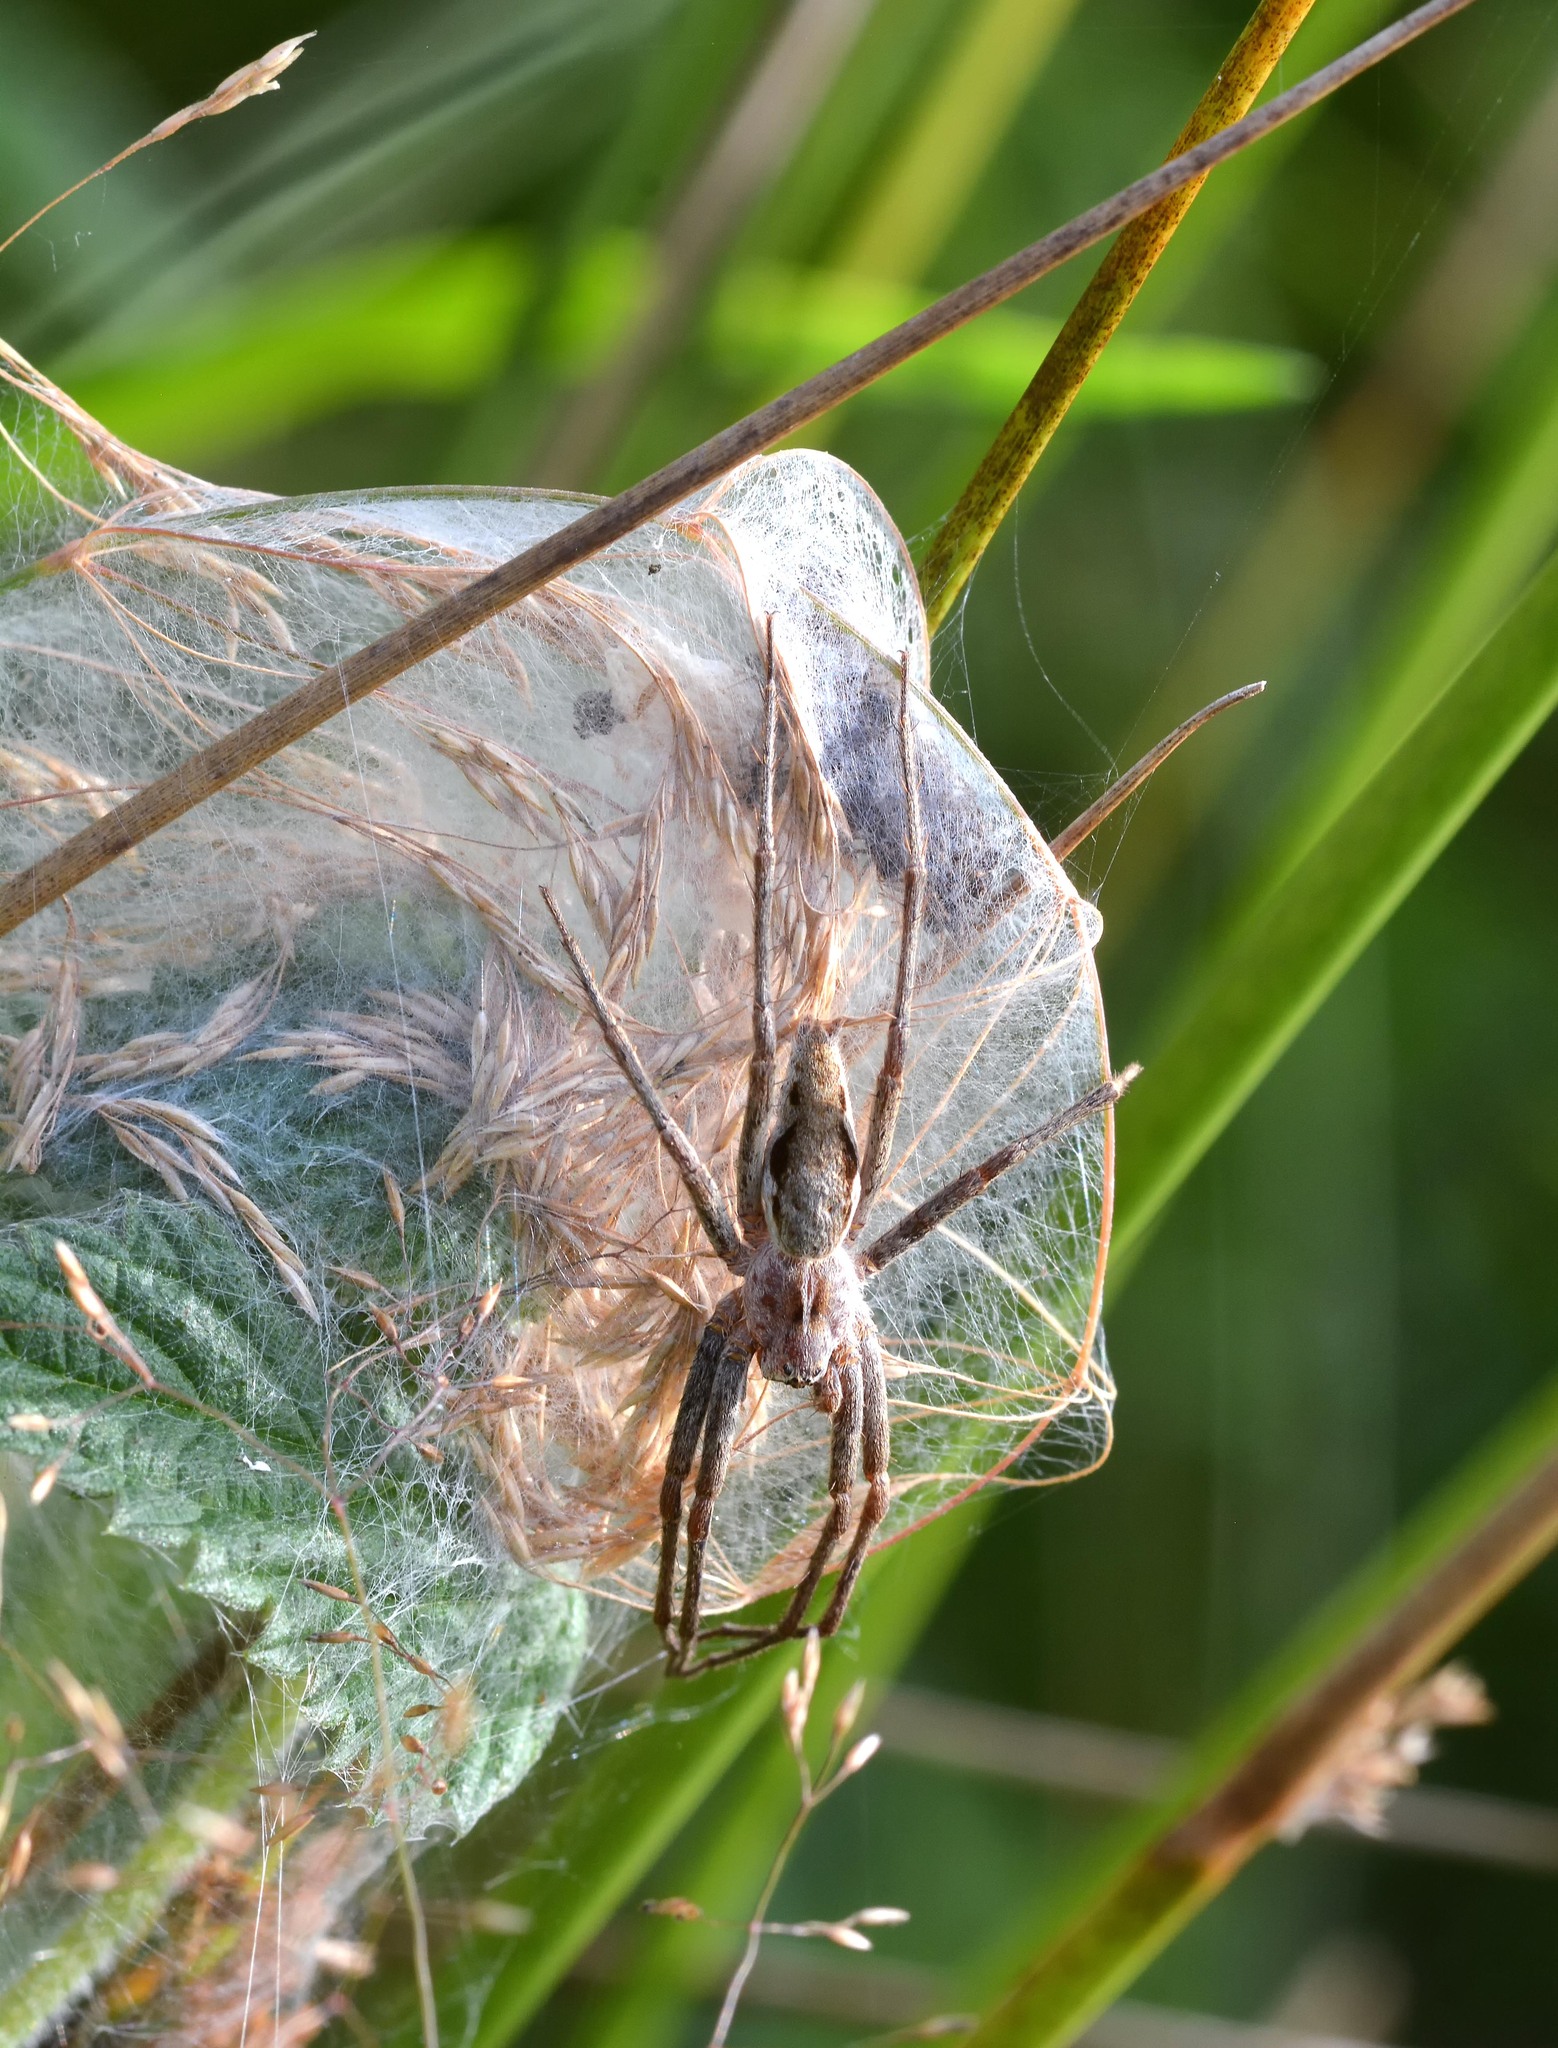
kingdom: Animalia
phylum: Arthropoda
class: Arachnida
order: Araneae
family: Pisauridae
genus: Pisaura
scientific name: Pisaura mirabilis
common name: Tent spider
